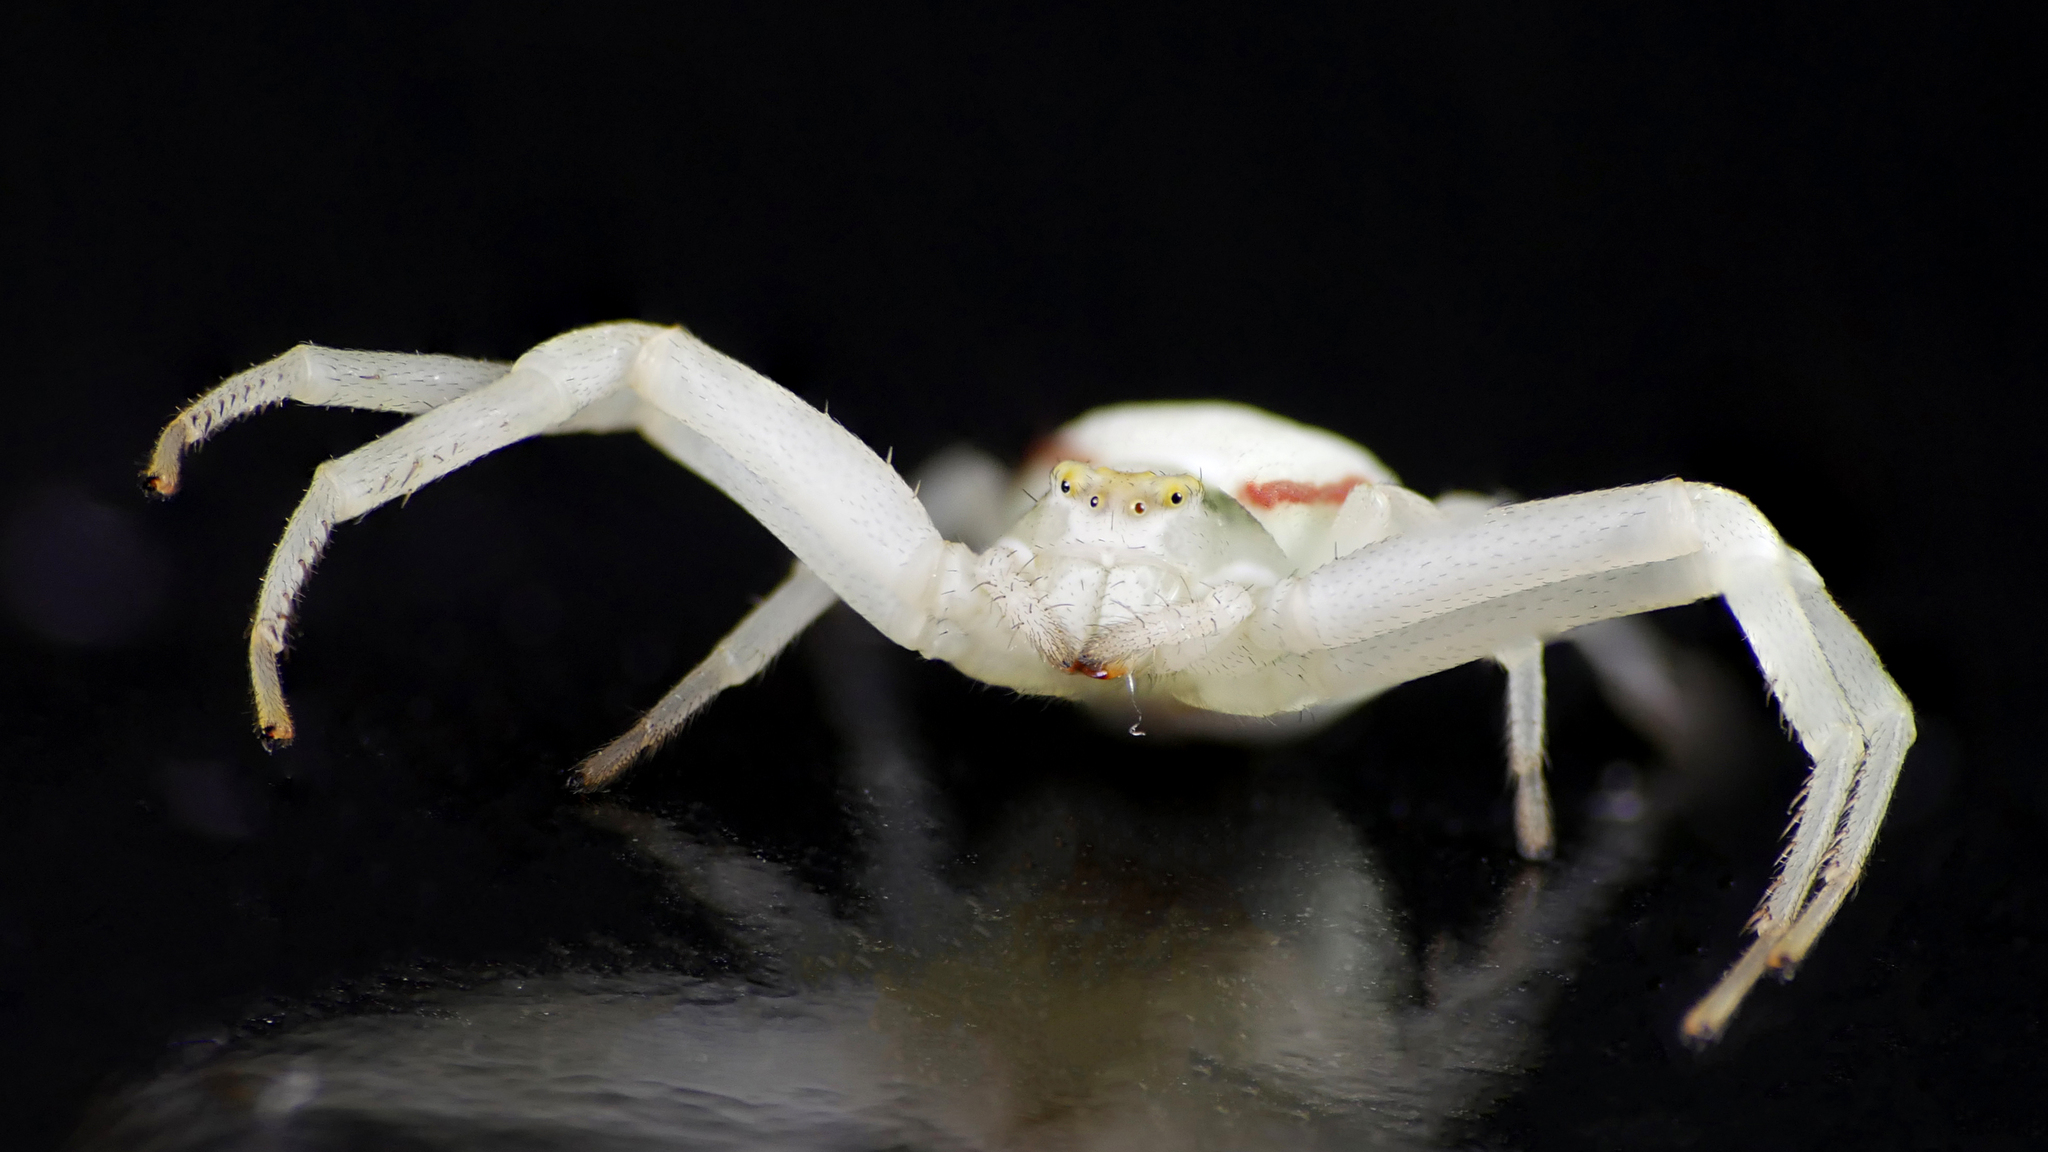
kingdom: Animalia
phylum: Arthropoda
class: Arachnida
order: Araneae
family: Thomisidae
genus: Misumena
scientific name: Misumena vatia
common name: Goldenrod crab spider
